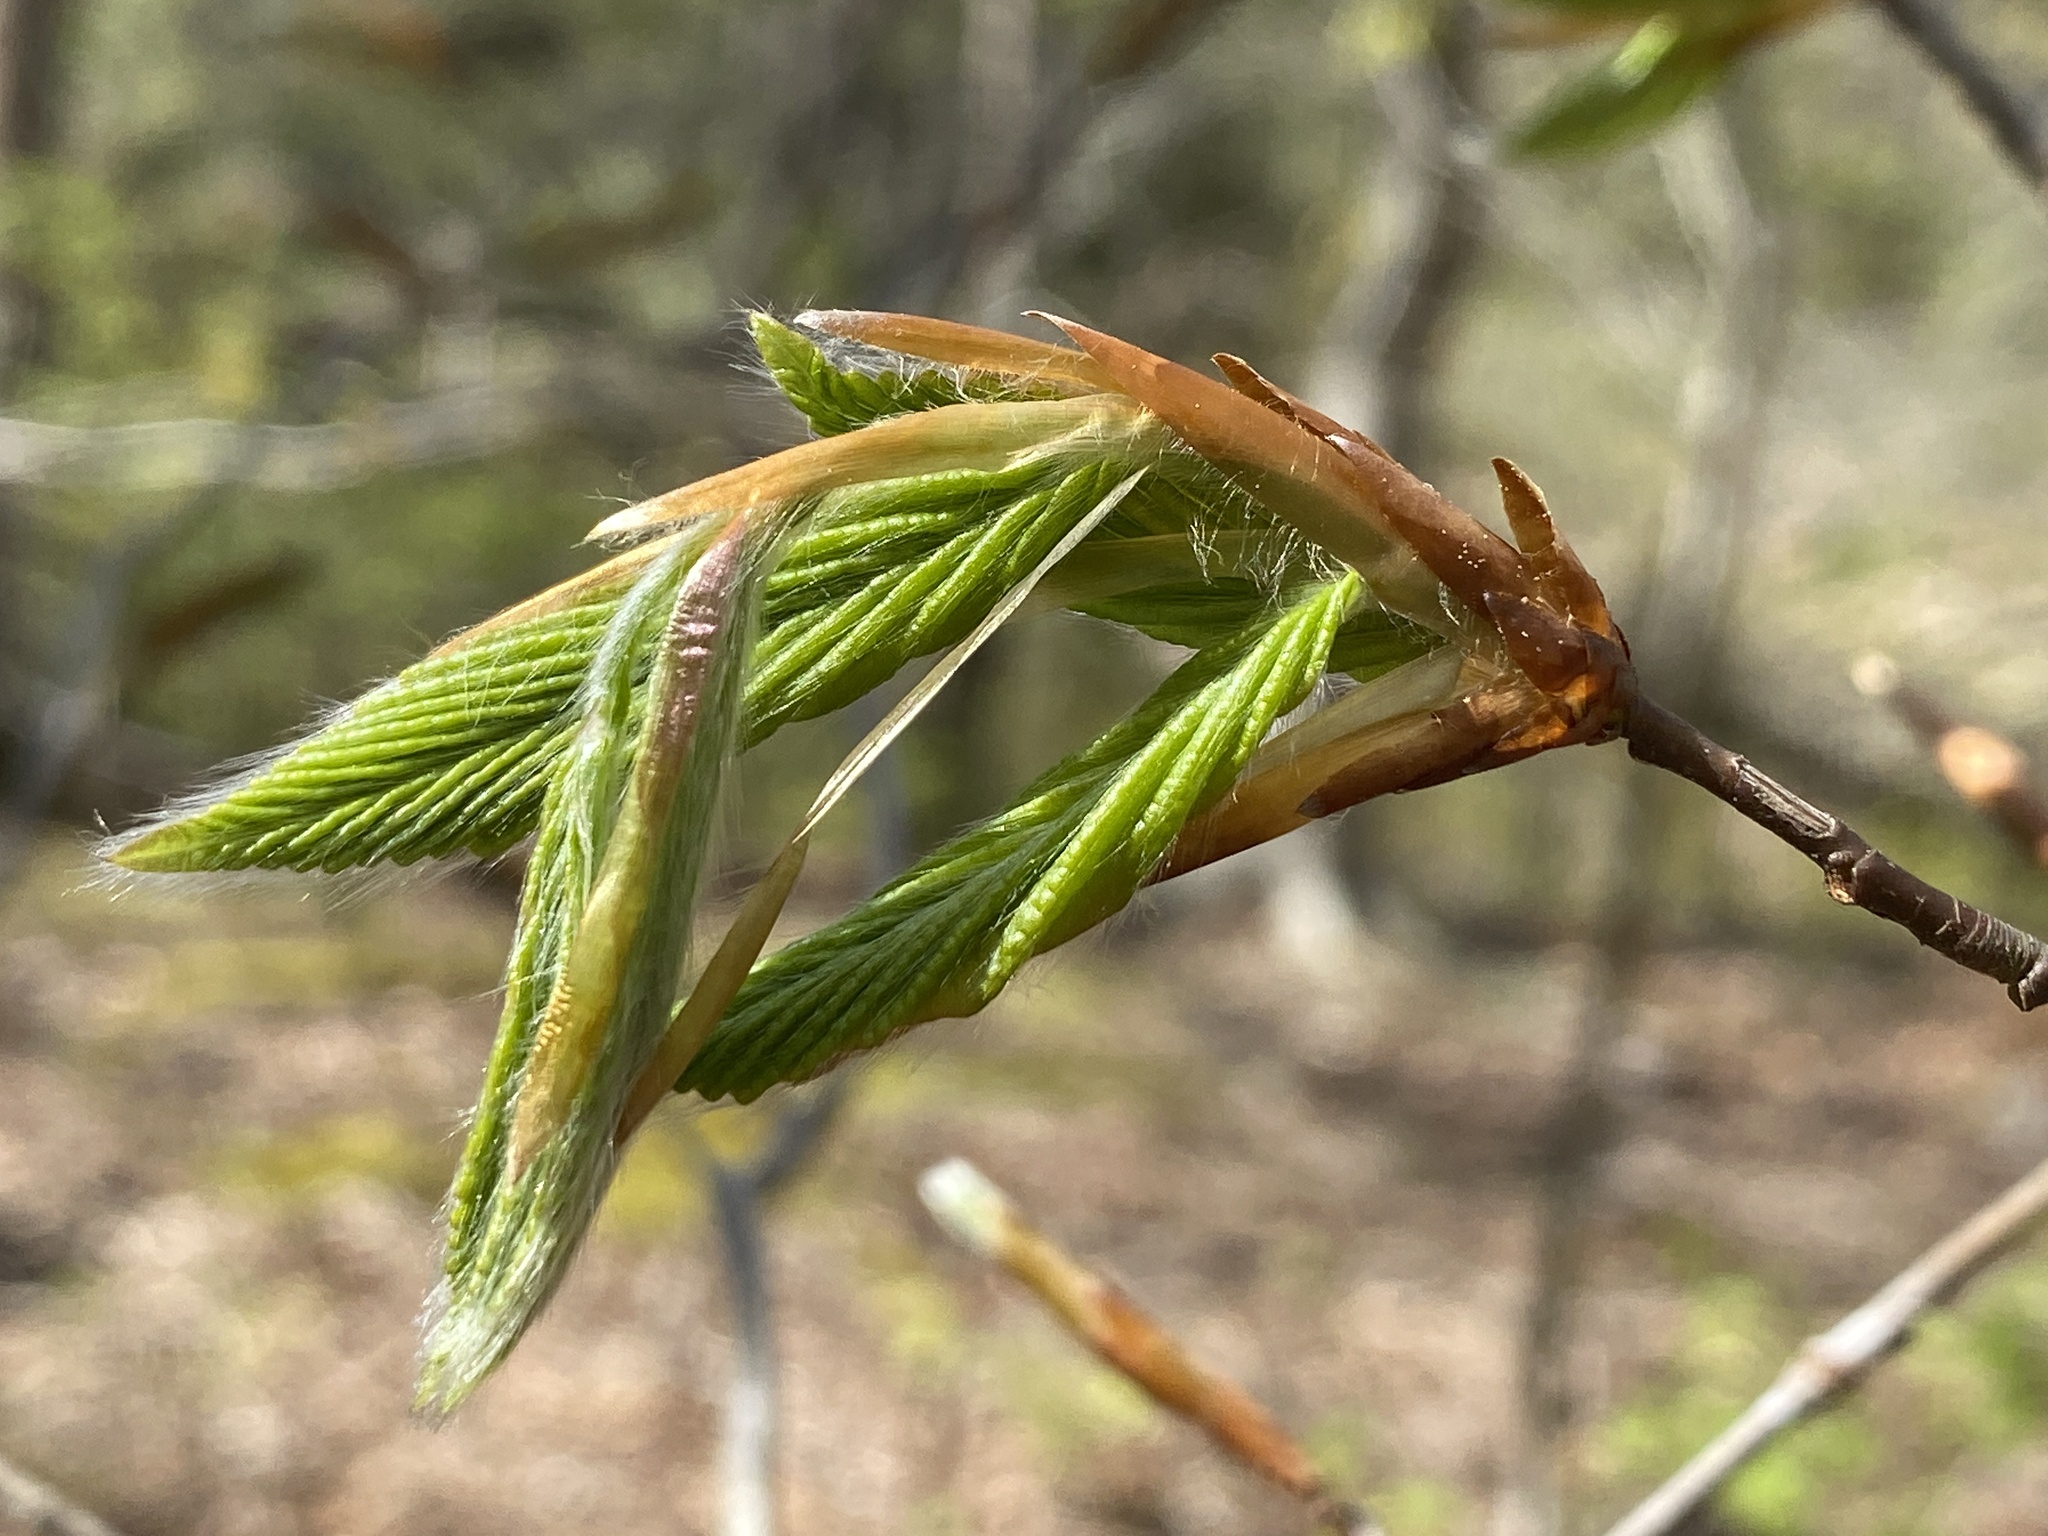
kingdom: Plantae
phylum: Tracheophyta
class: Magnoliopsida
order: Fagales
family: Fagaceae
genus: Fagus
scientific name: Fagus grandifolia
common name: American beech
